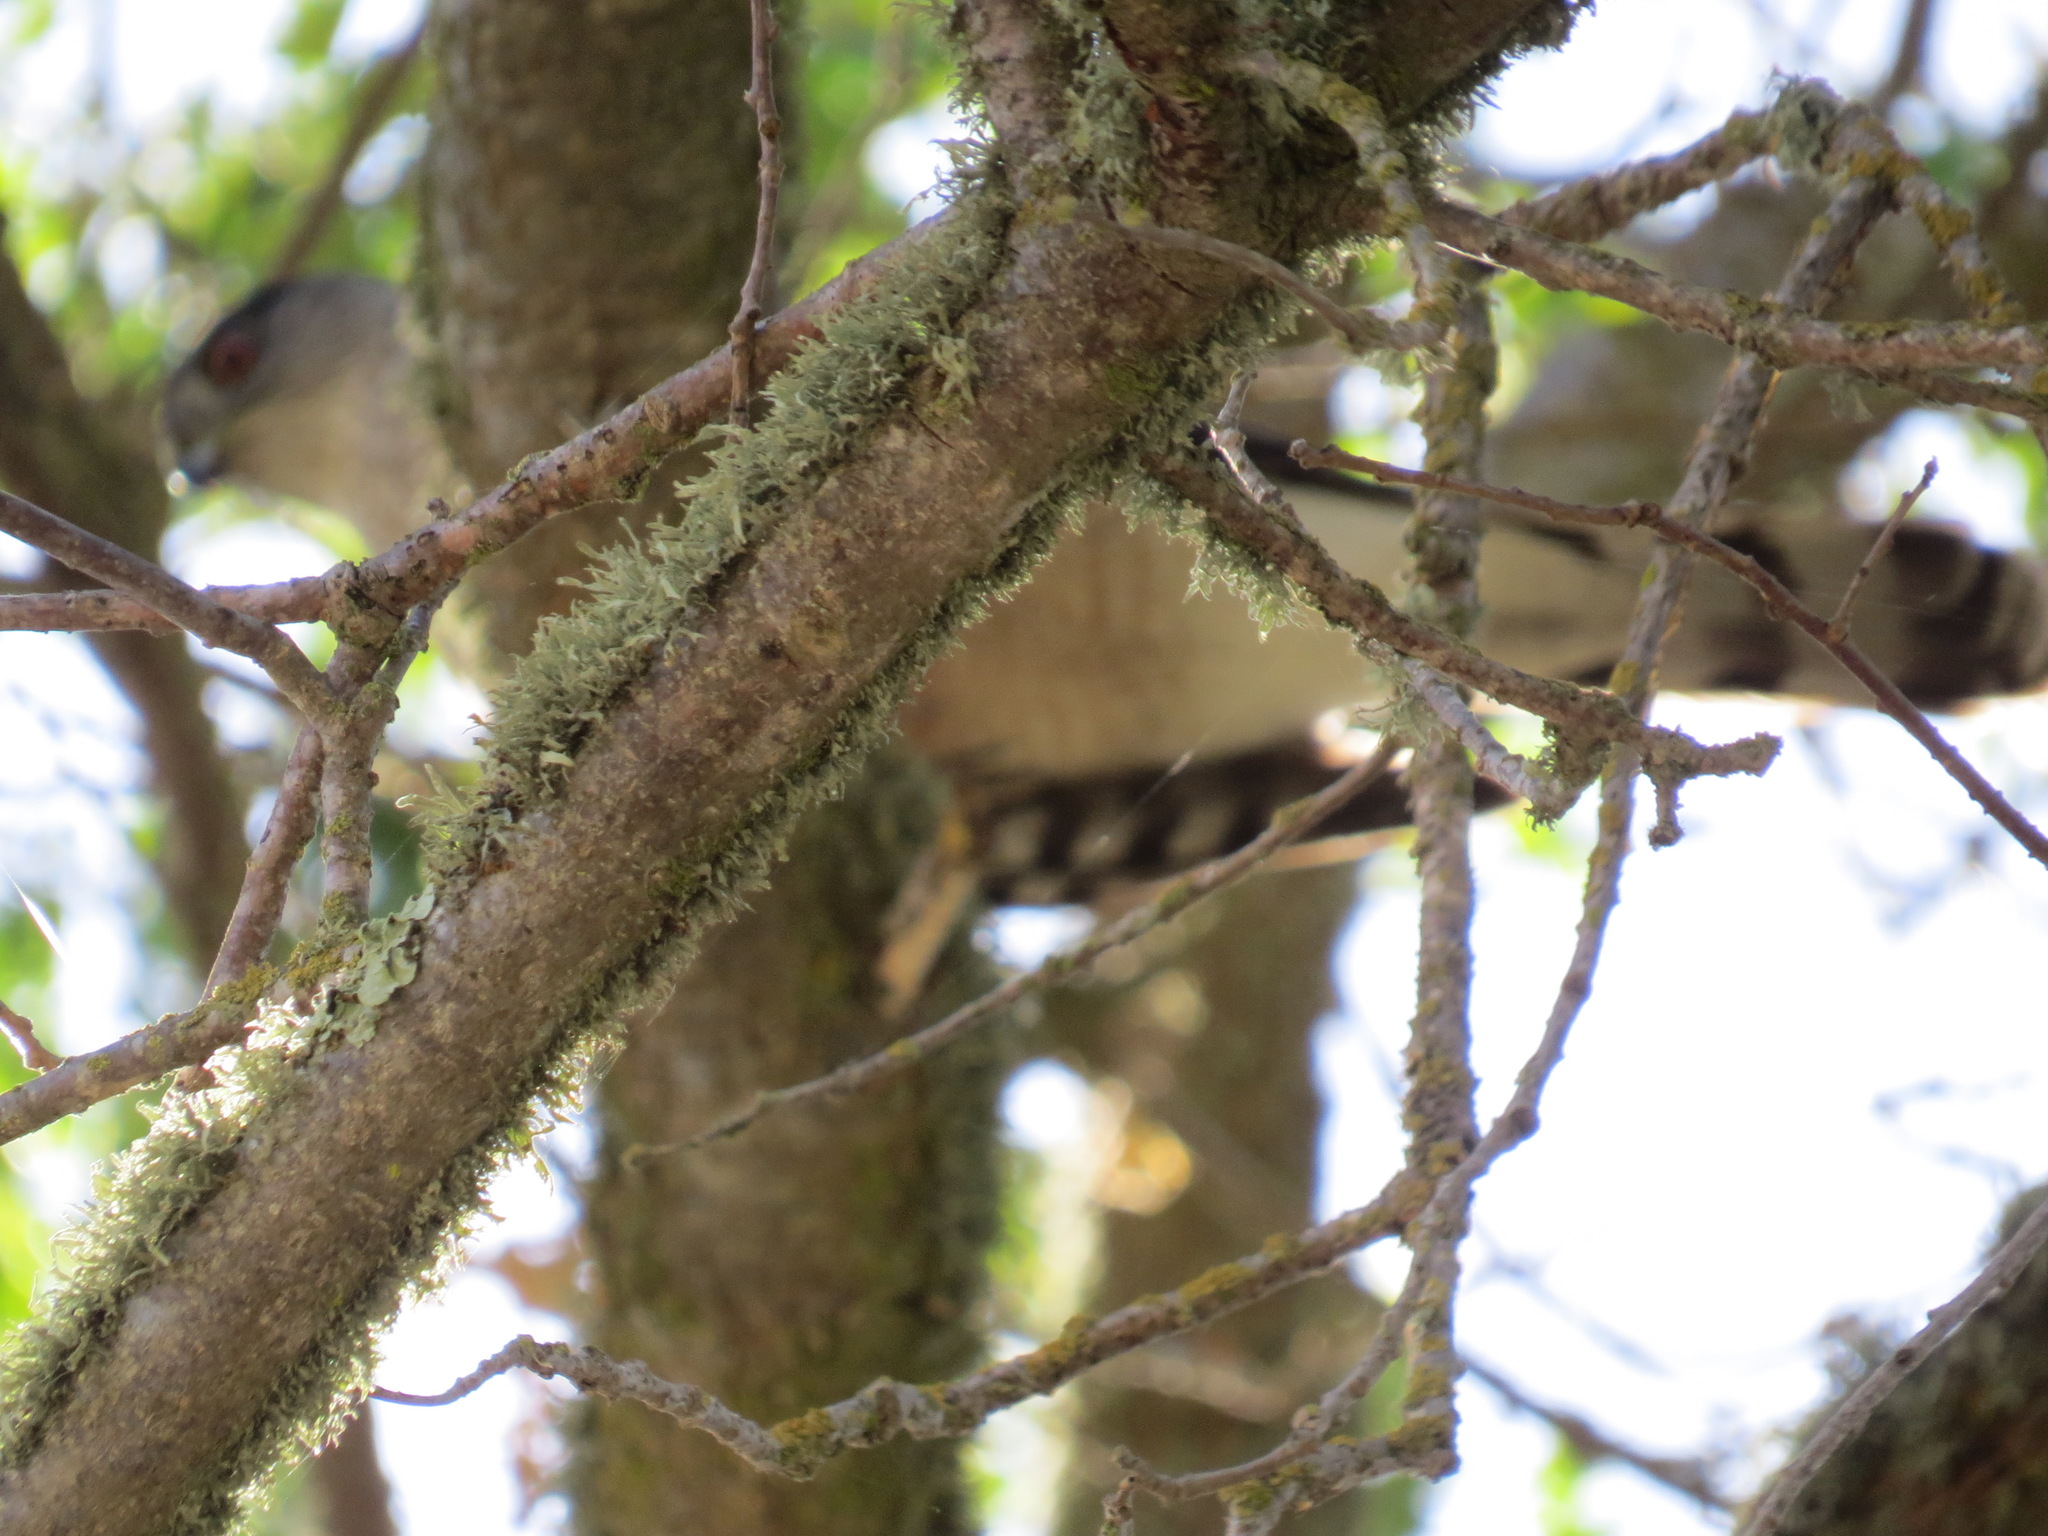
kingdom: Animalia
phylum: Chordata
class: Aves
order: Accipitriformes
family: Accipitridae
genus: Accipiter
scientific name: Accipiter cooperii
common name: Cooper's hawk
